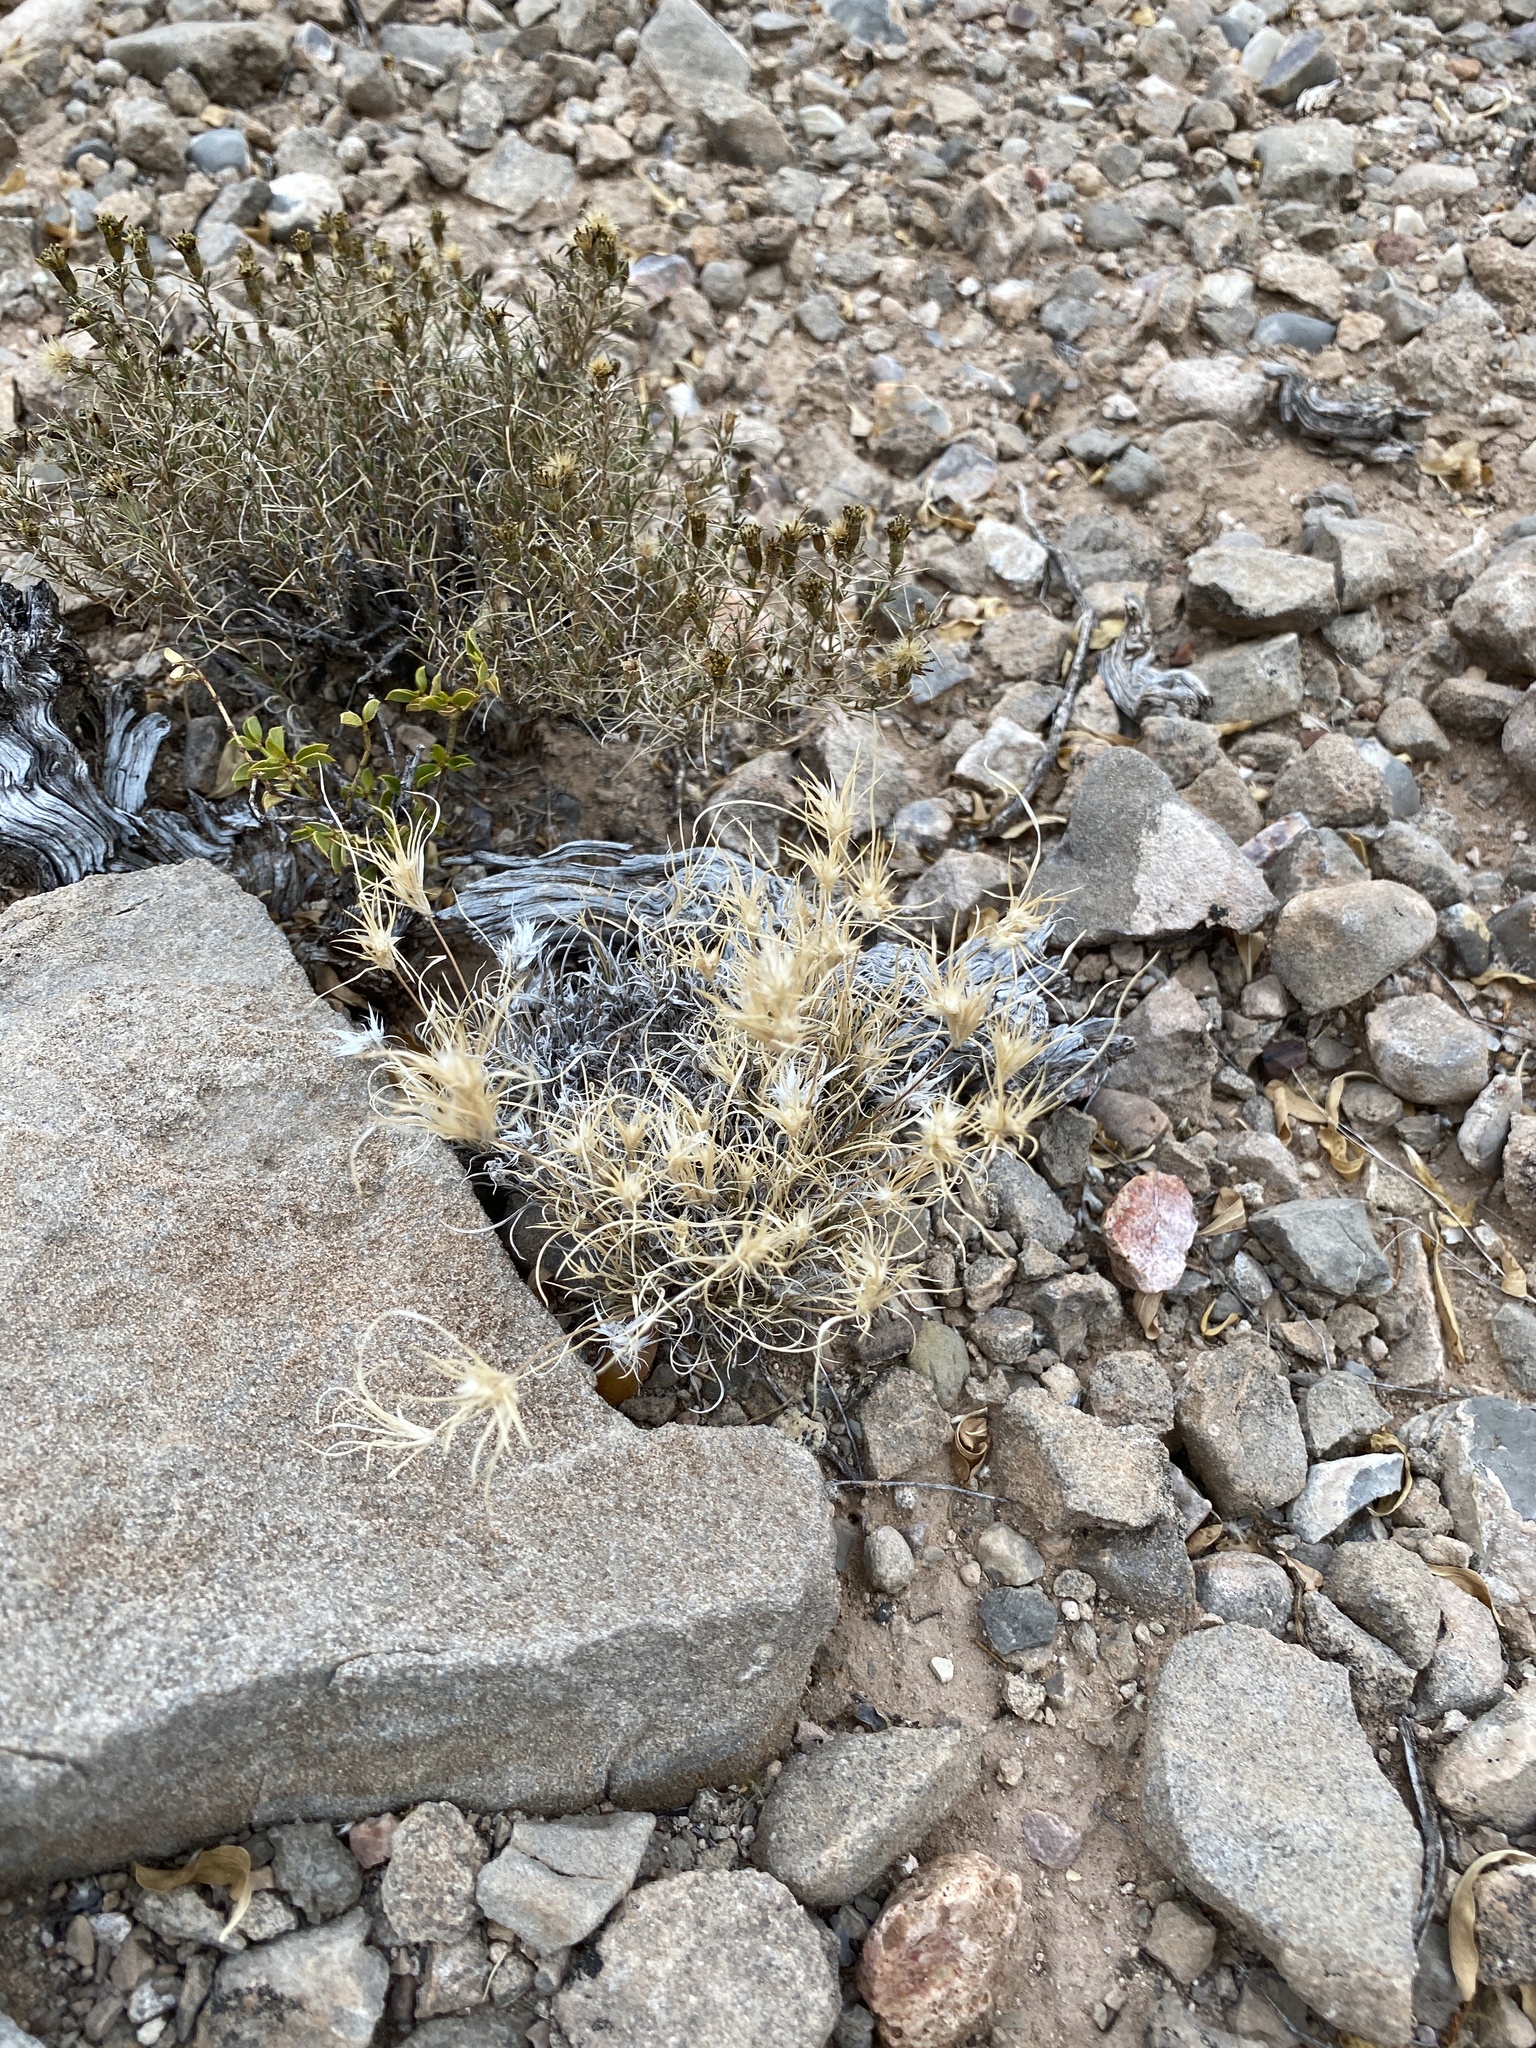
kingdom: Plantae
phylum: Tracheophyta
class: Liliopsida
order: Poales
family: Poaceae
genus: Dasyochloa
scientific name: Dasyochloa pulchella
